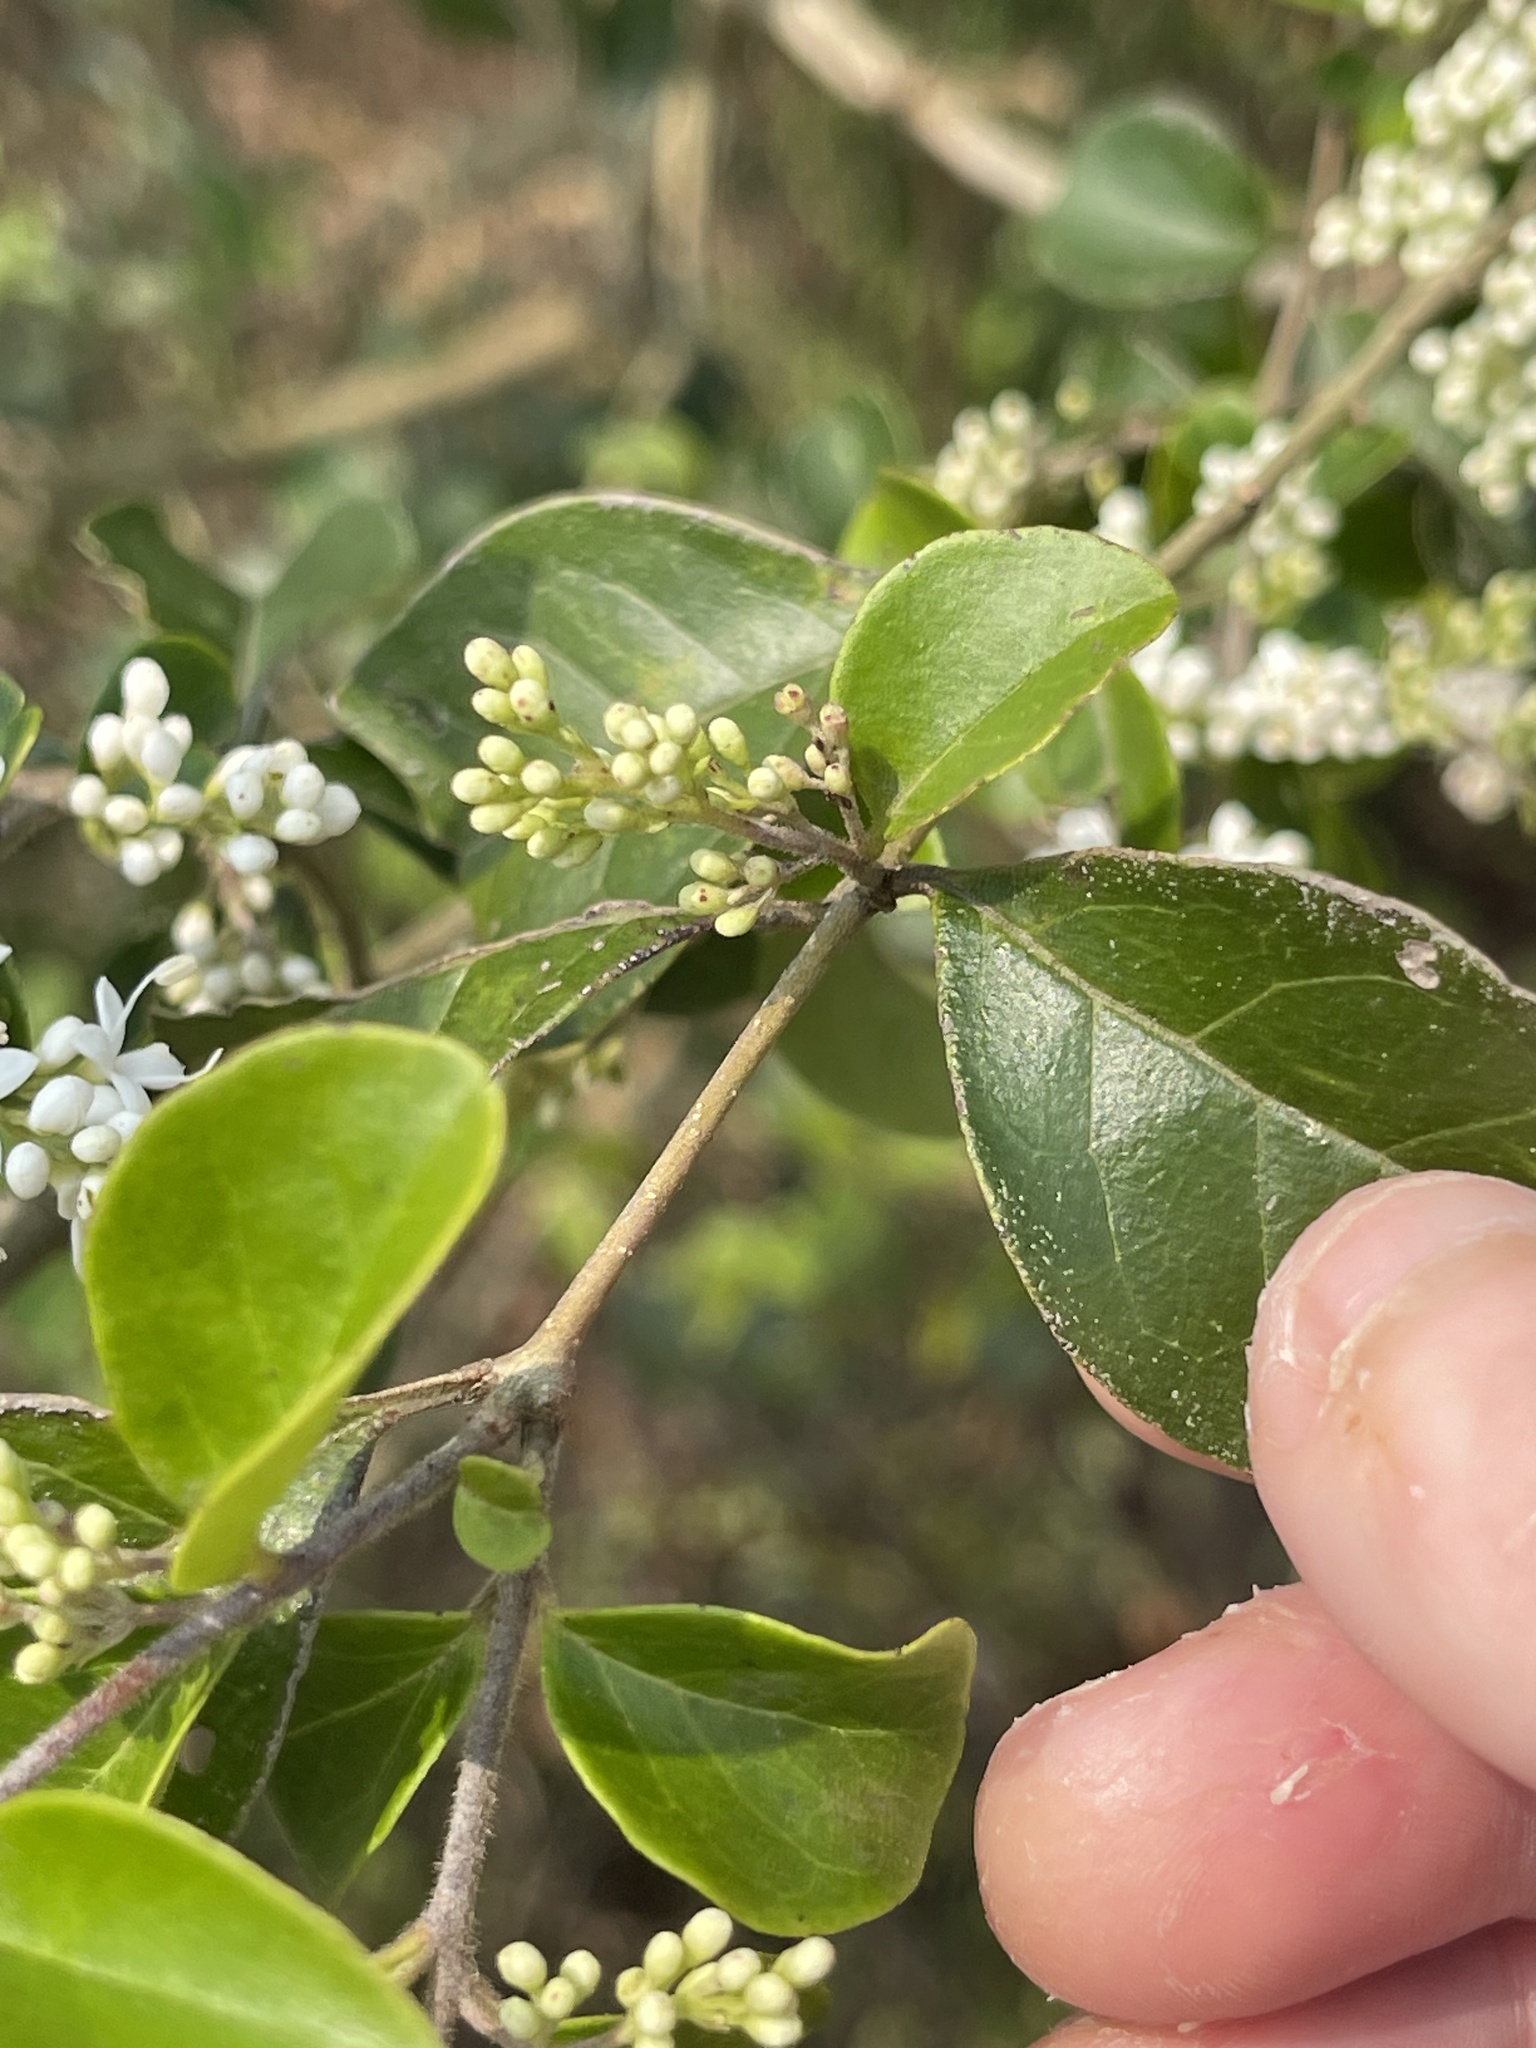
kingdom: Plantae
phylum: Tracheophyta
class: Magnoliopsida
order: Lamiales
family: Oleaceae
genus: Ligustrum
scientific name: Ligustrum sinense
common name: Chinese privet
